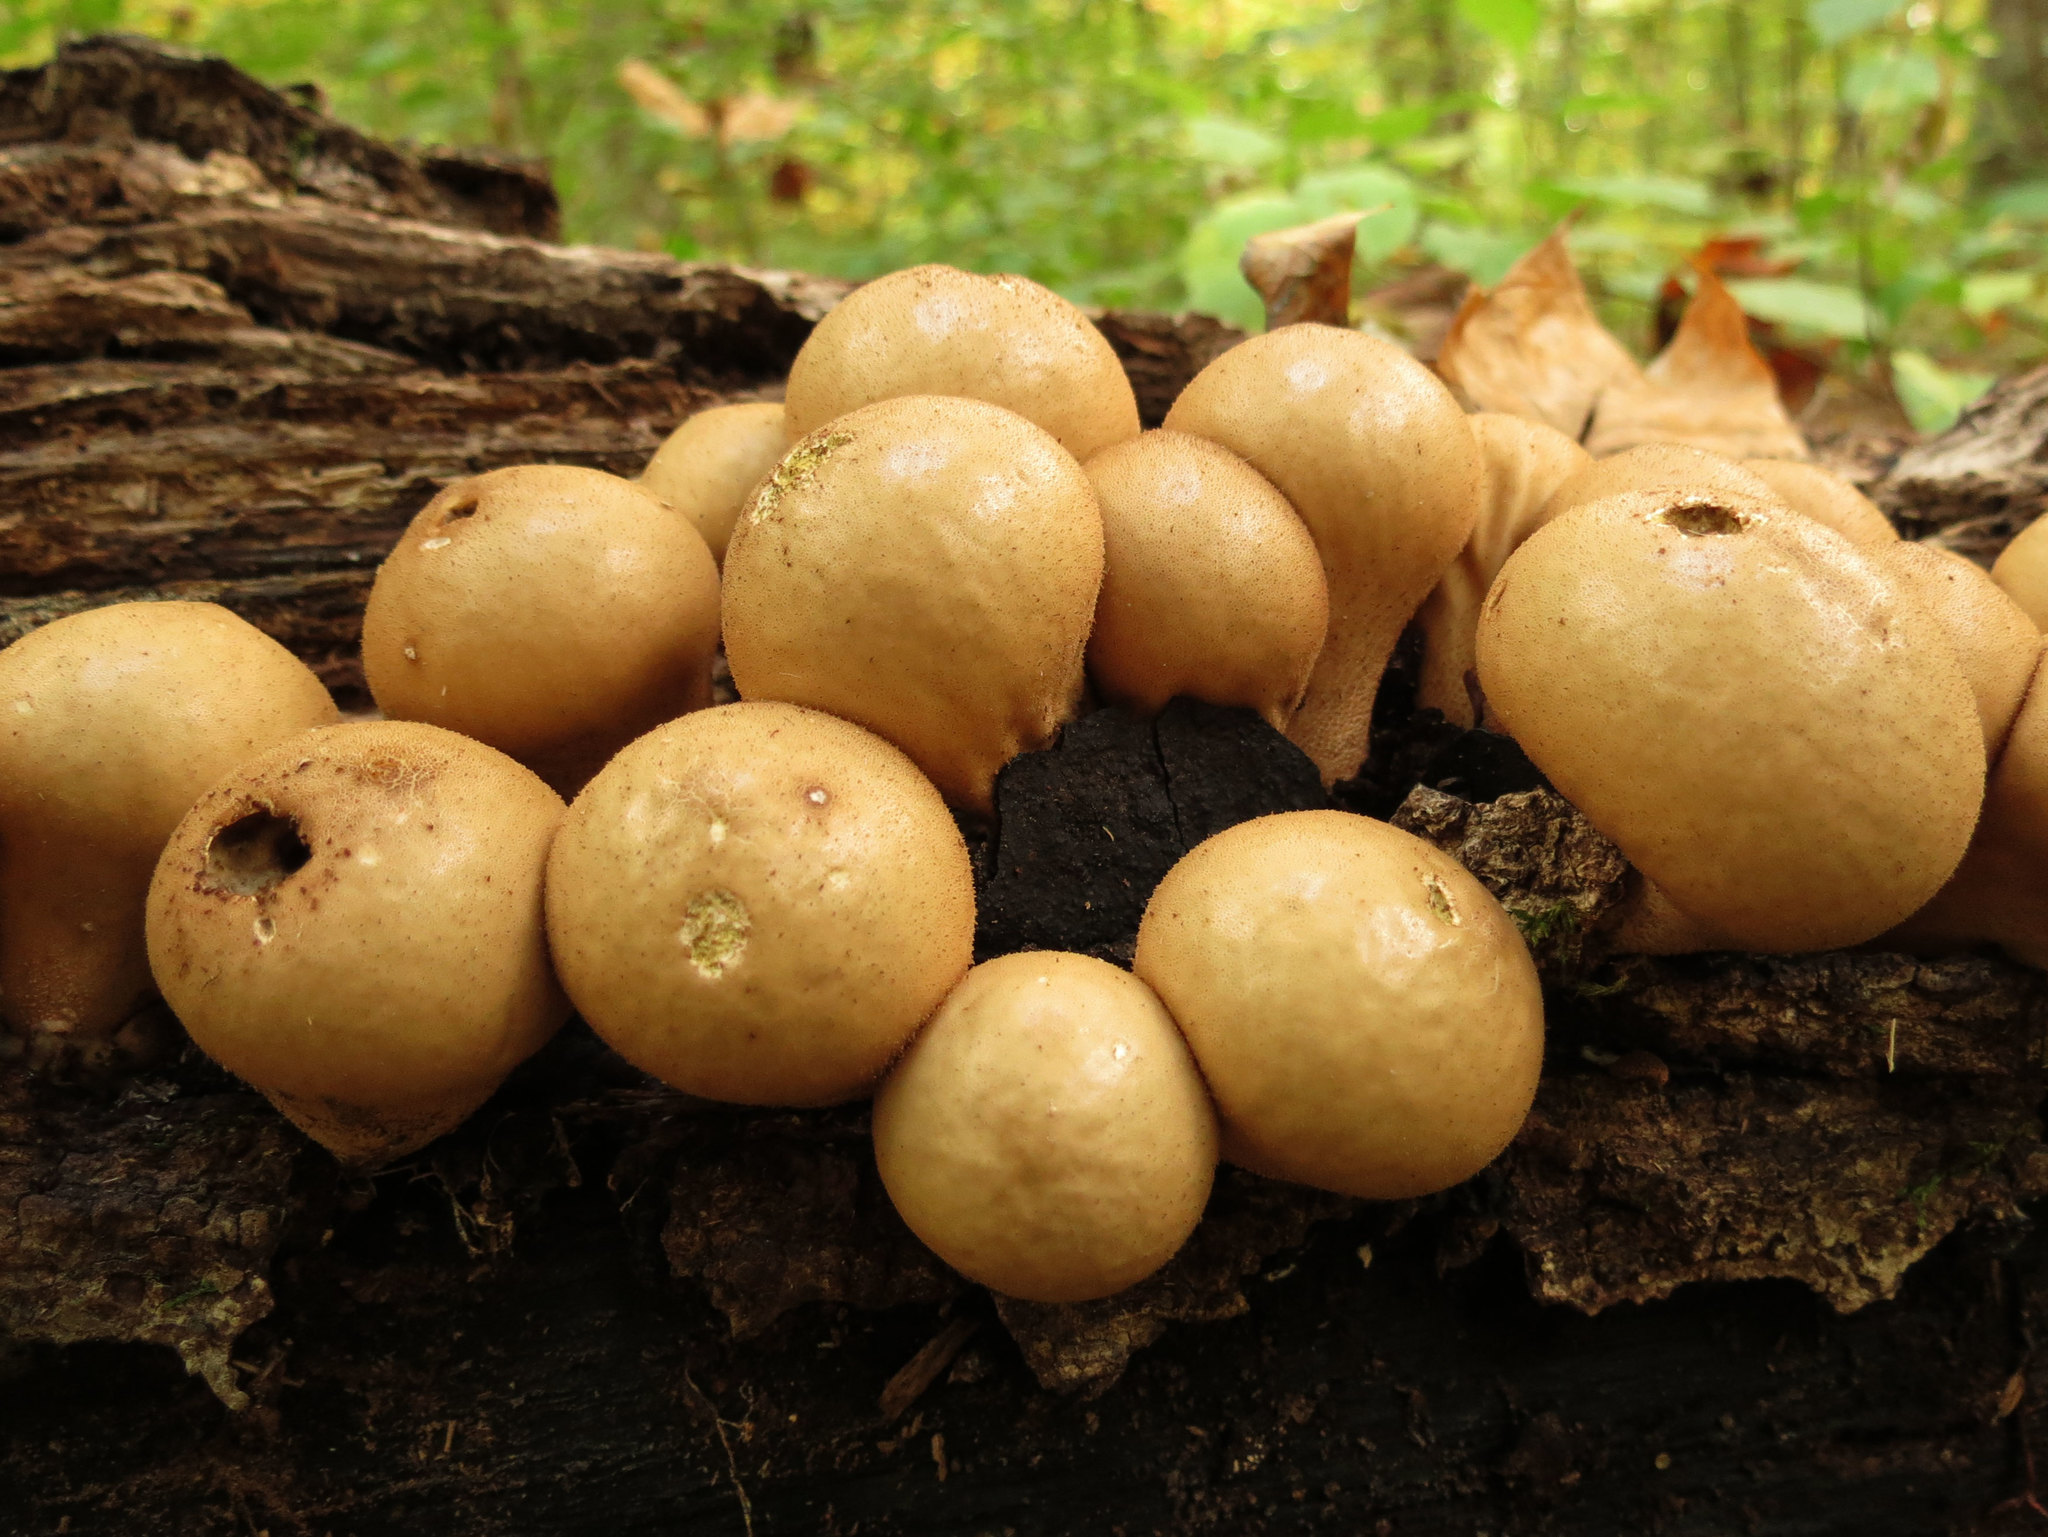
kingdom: Fungi
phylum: Basidiomycota
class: Agaricomycetes
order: Agaricales
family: Lycoperdaceae
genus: Apioperdon
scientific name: Apioperdon pyriforme
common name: Pear-shaped puffball
